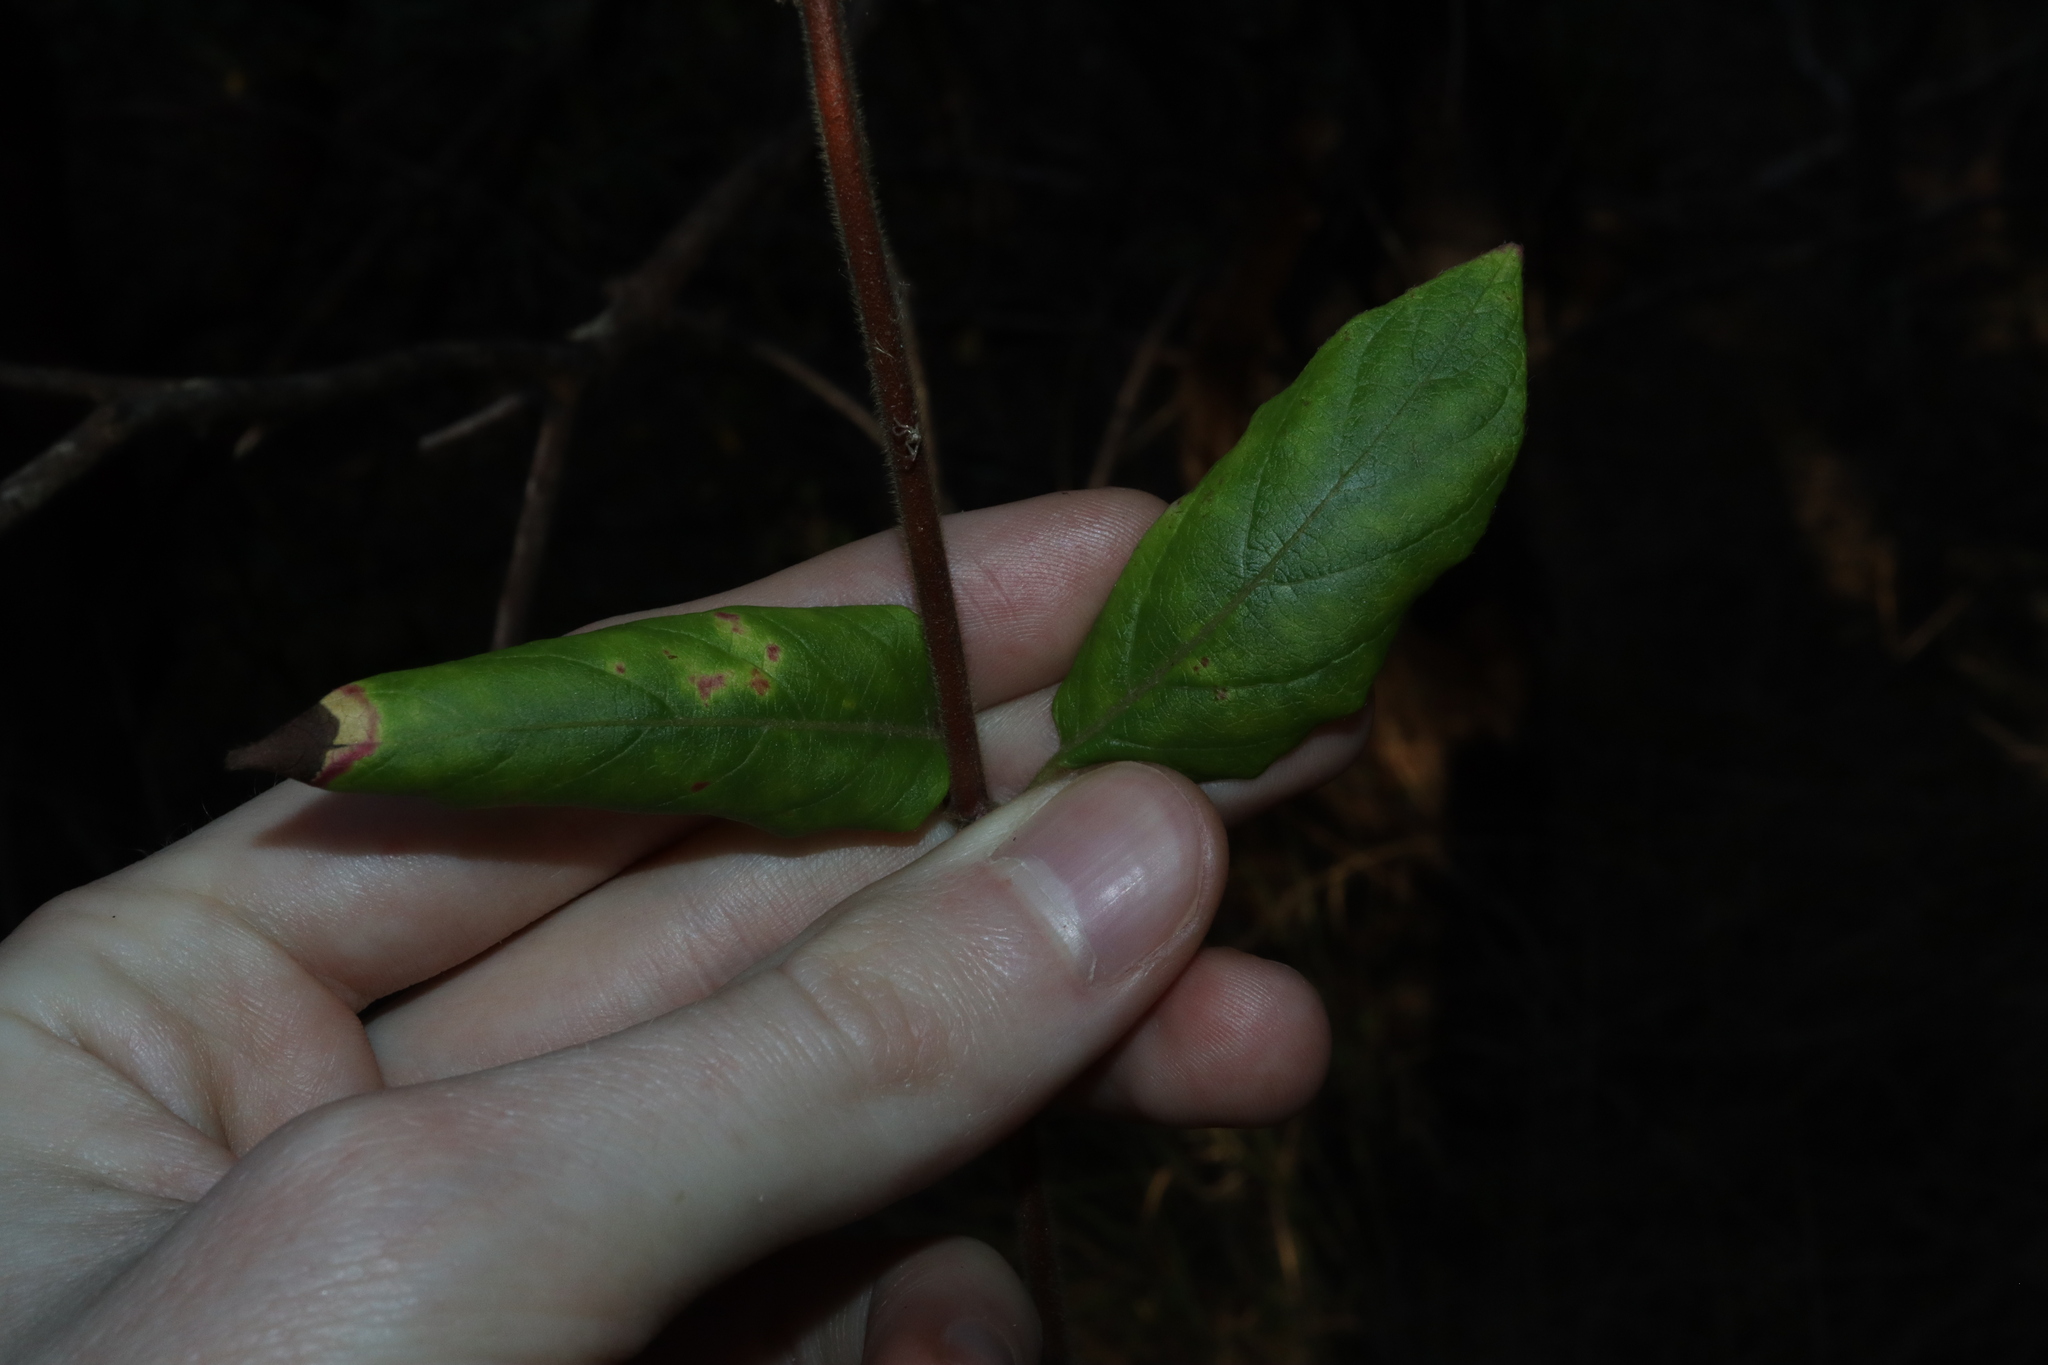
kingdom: Plantae
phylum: Tracheophyta
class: Magnoliopsida
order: Dipsacales
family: Caprifoliaceae
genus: Lonicera
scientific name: Lonicera japonica
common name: Japanese honeysuckle
